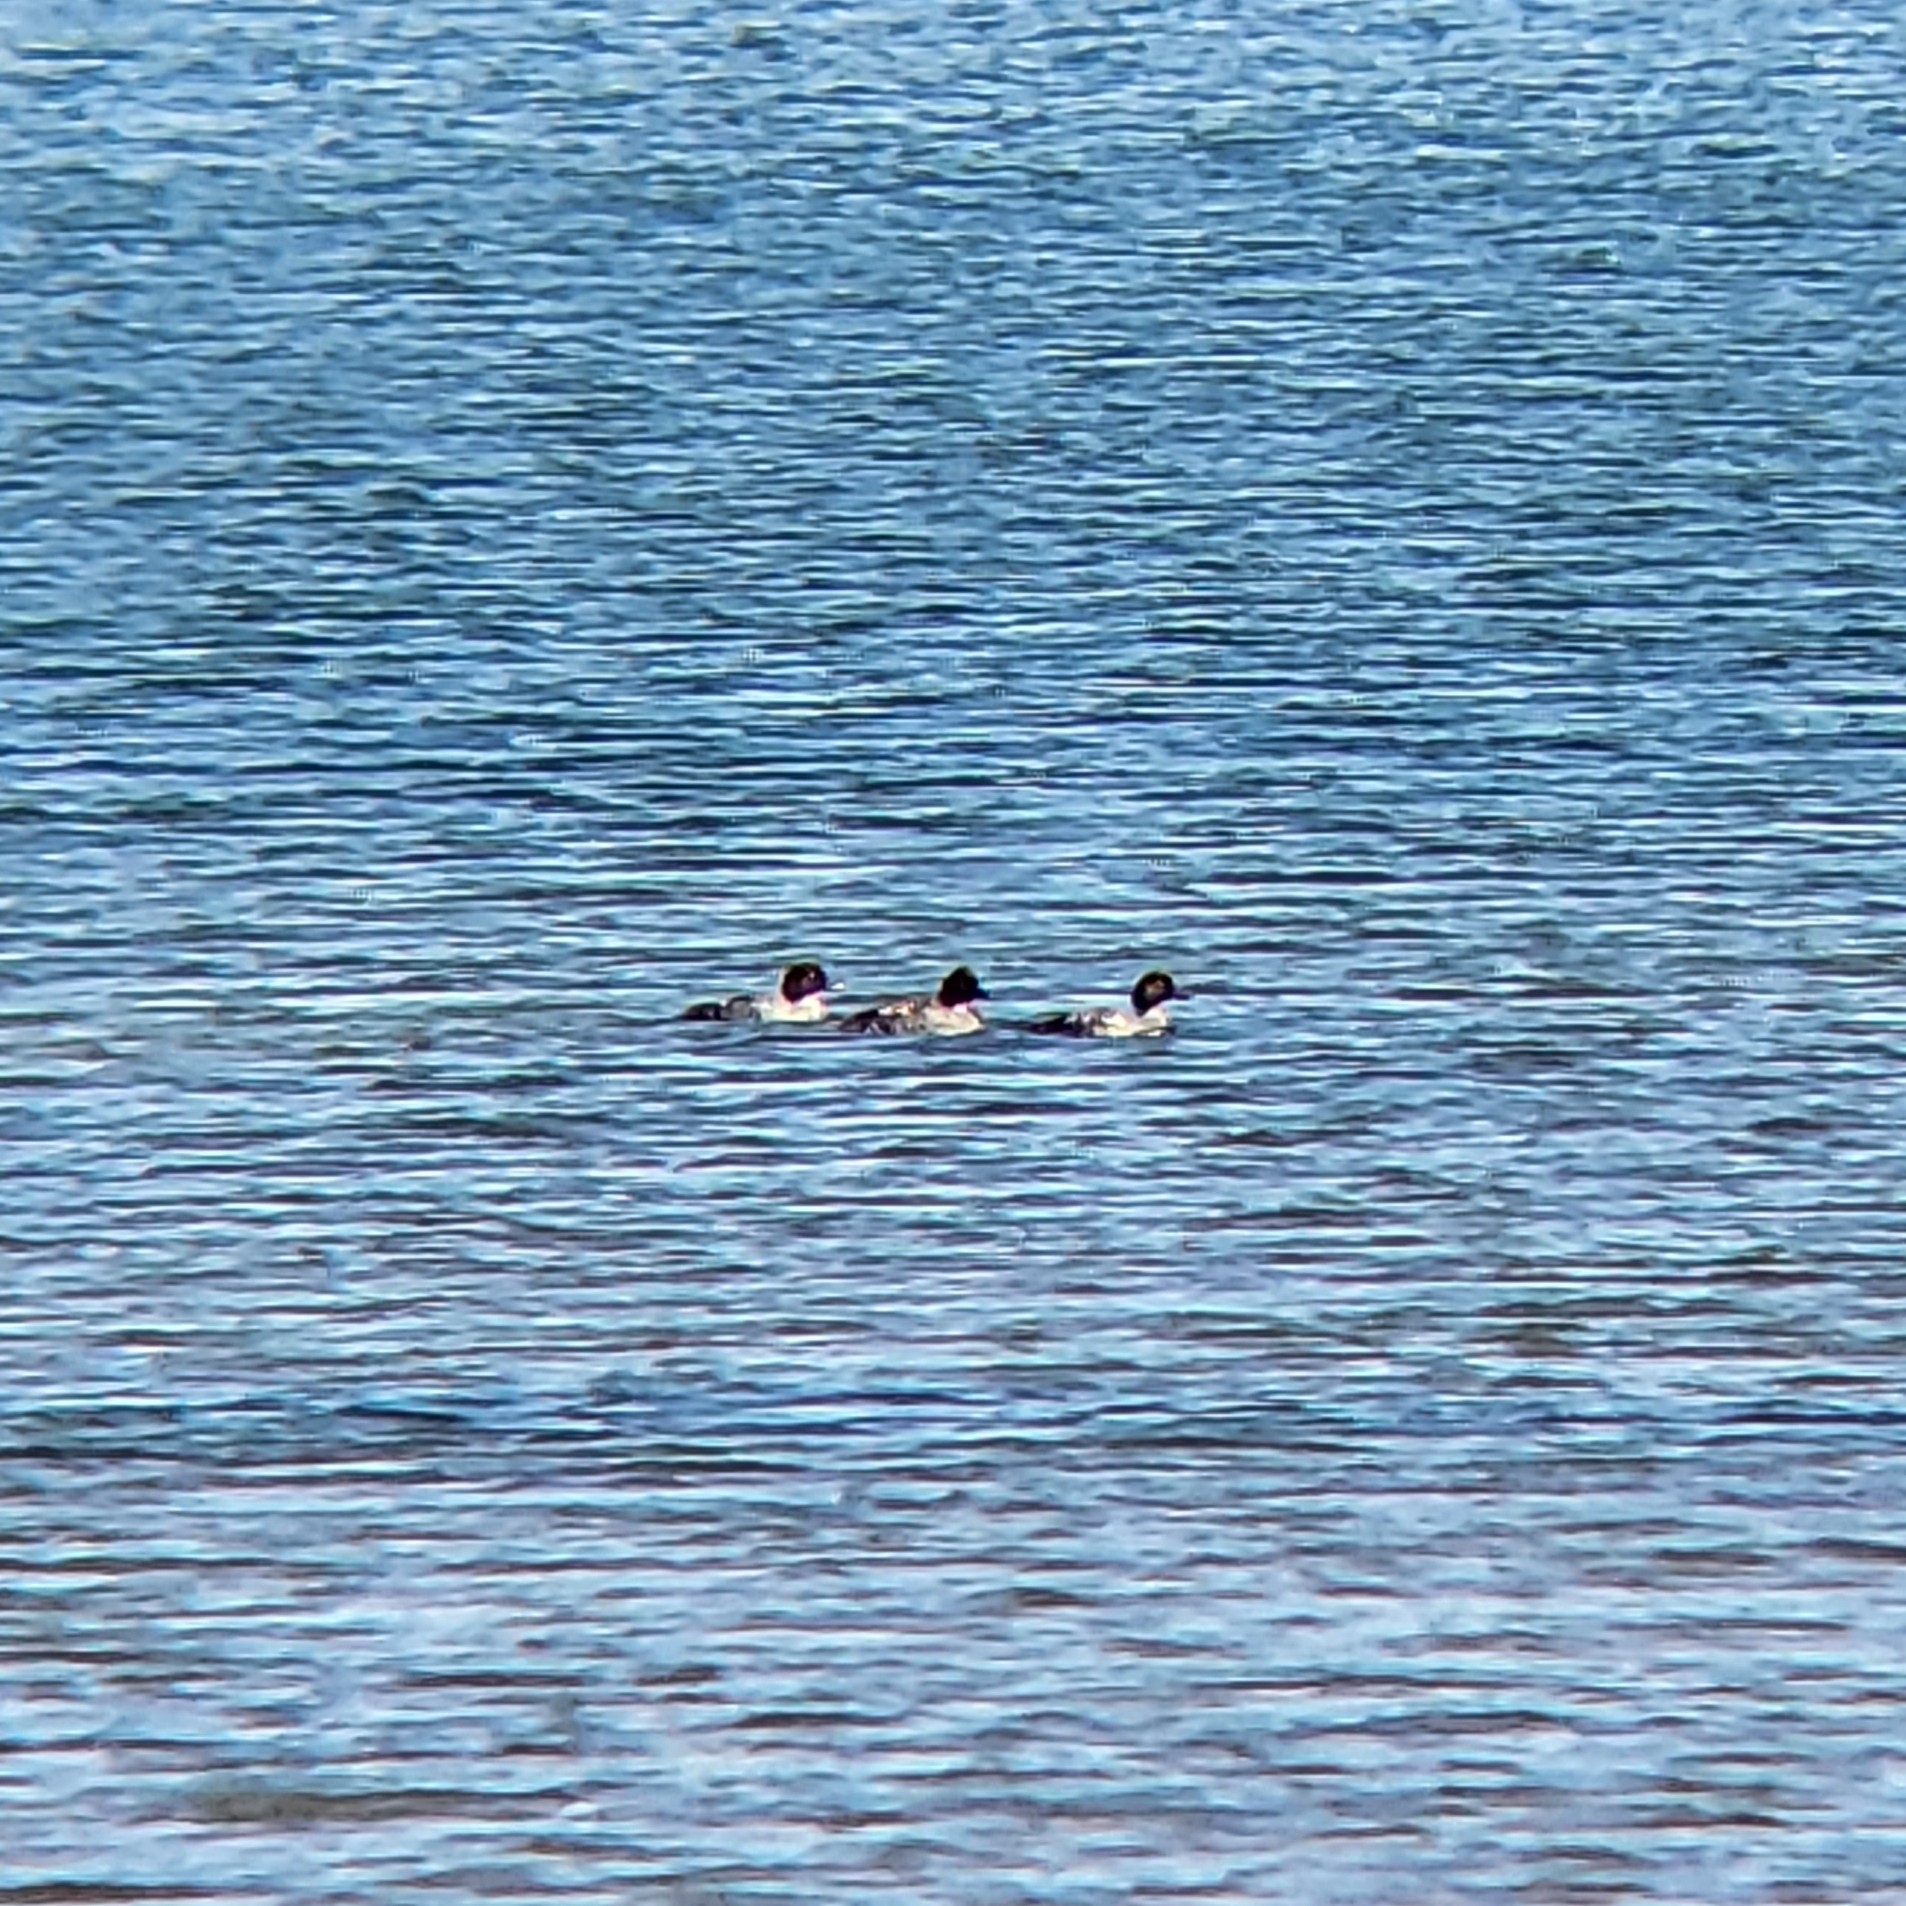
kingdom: Animalia
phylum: Chordata
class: Aves
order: Anseriformes
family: Anatidae
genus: Bucephala
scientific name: Bucephala clangula
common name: Common goldeneye
